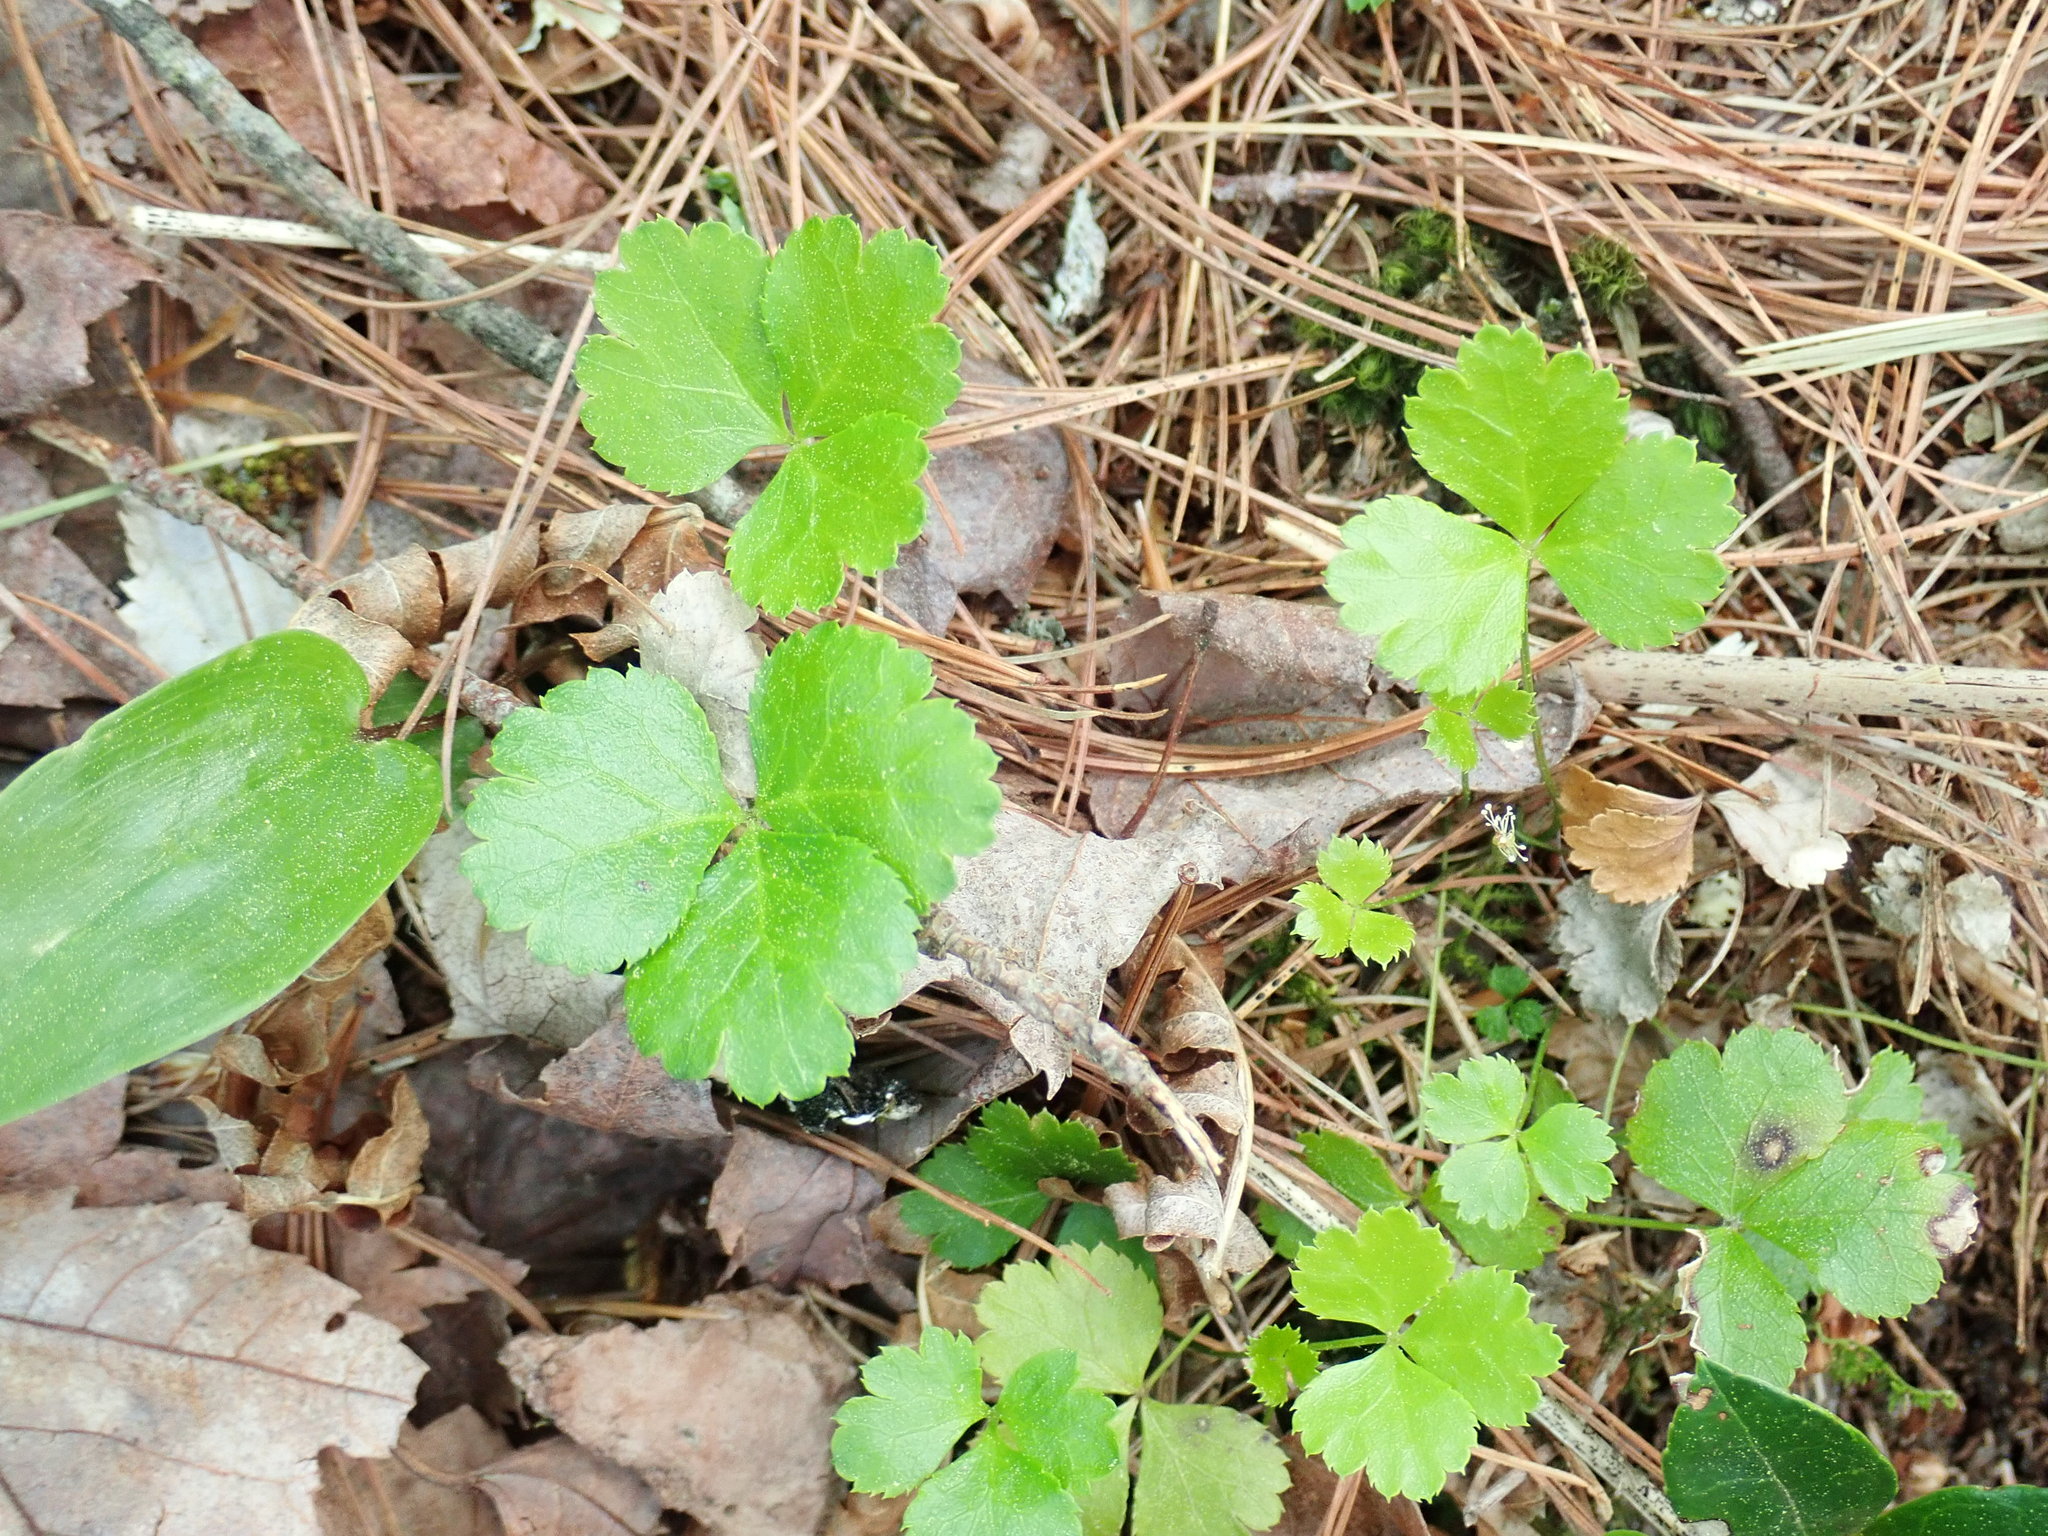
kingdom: Plantae
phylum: Tracheophyta
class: Magnoliopsida
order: Ranunculales
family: Ranunculaceae
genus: Coptis
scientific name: Coptis trifolia
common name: Canker-root
